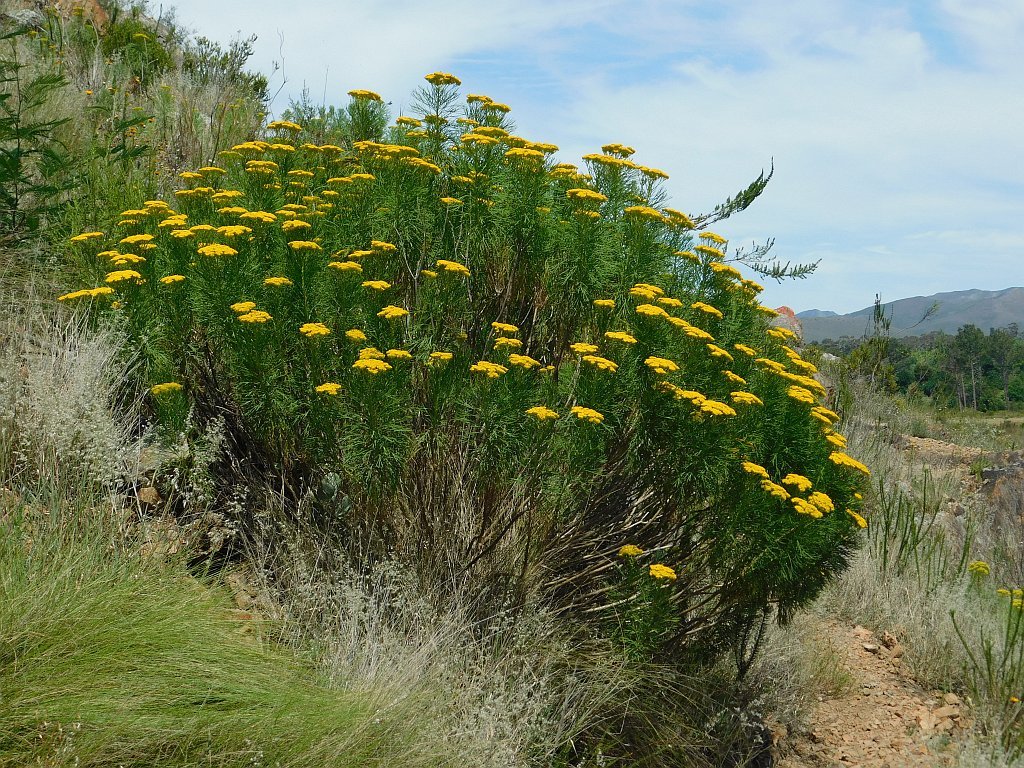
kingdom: Plantae
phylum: Tracheophyta
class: Magnoliopsida
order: Asterales
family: Asteraceae
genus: Hymenolepis
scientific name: Hymenolepis crithmifolia
